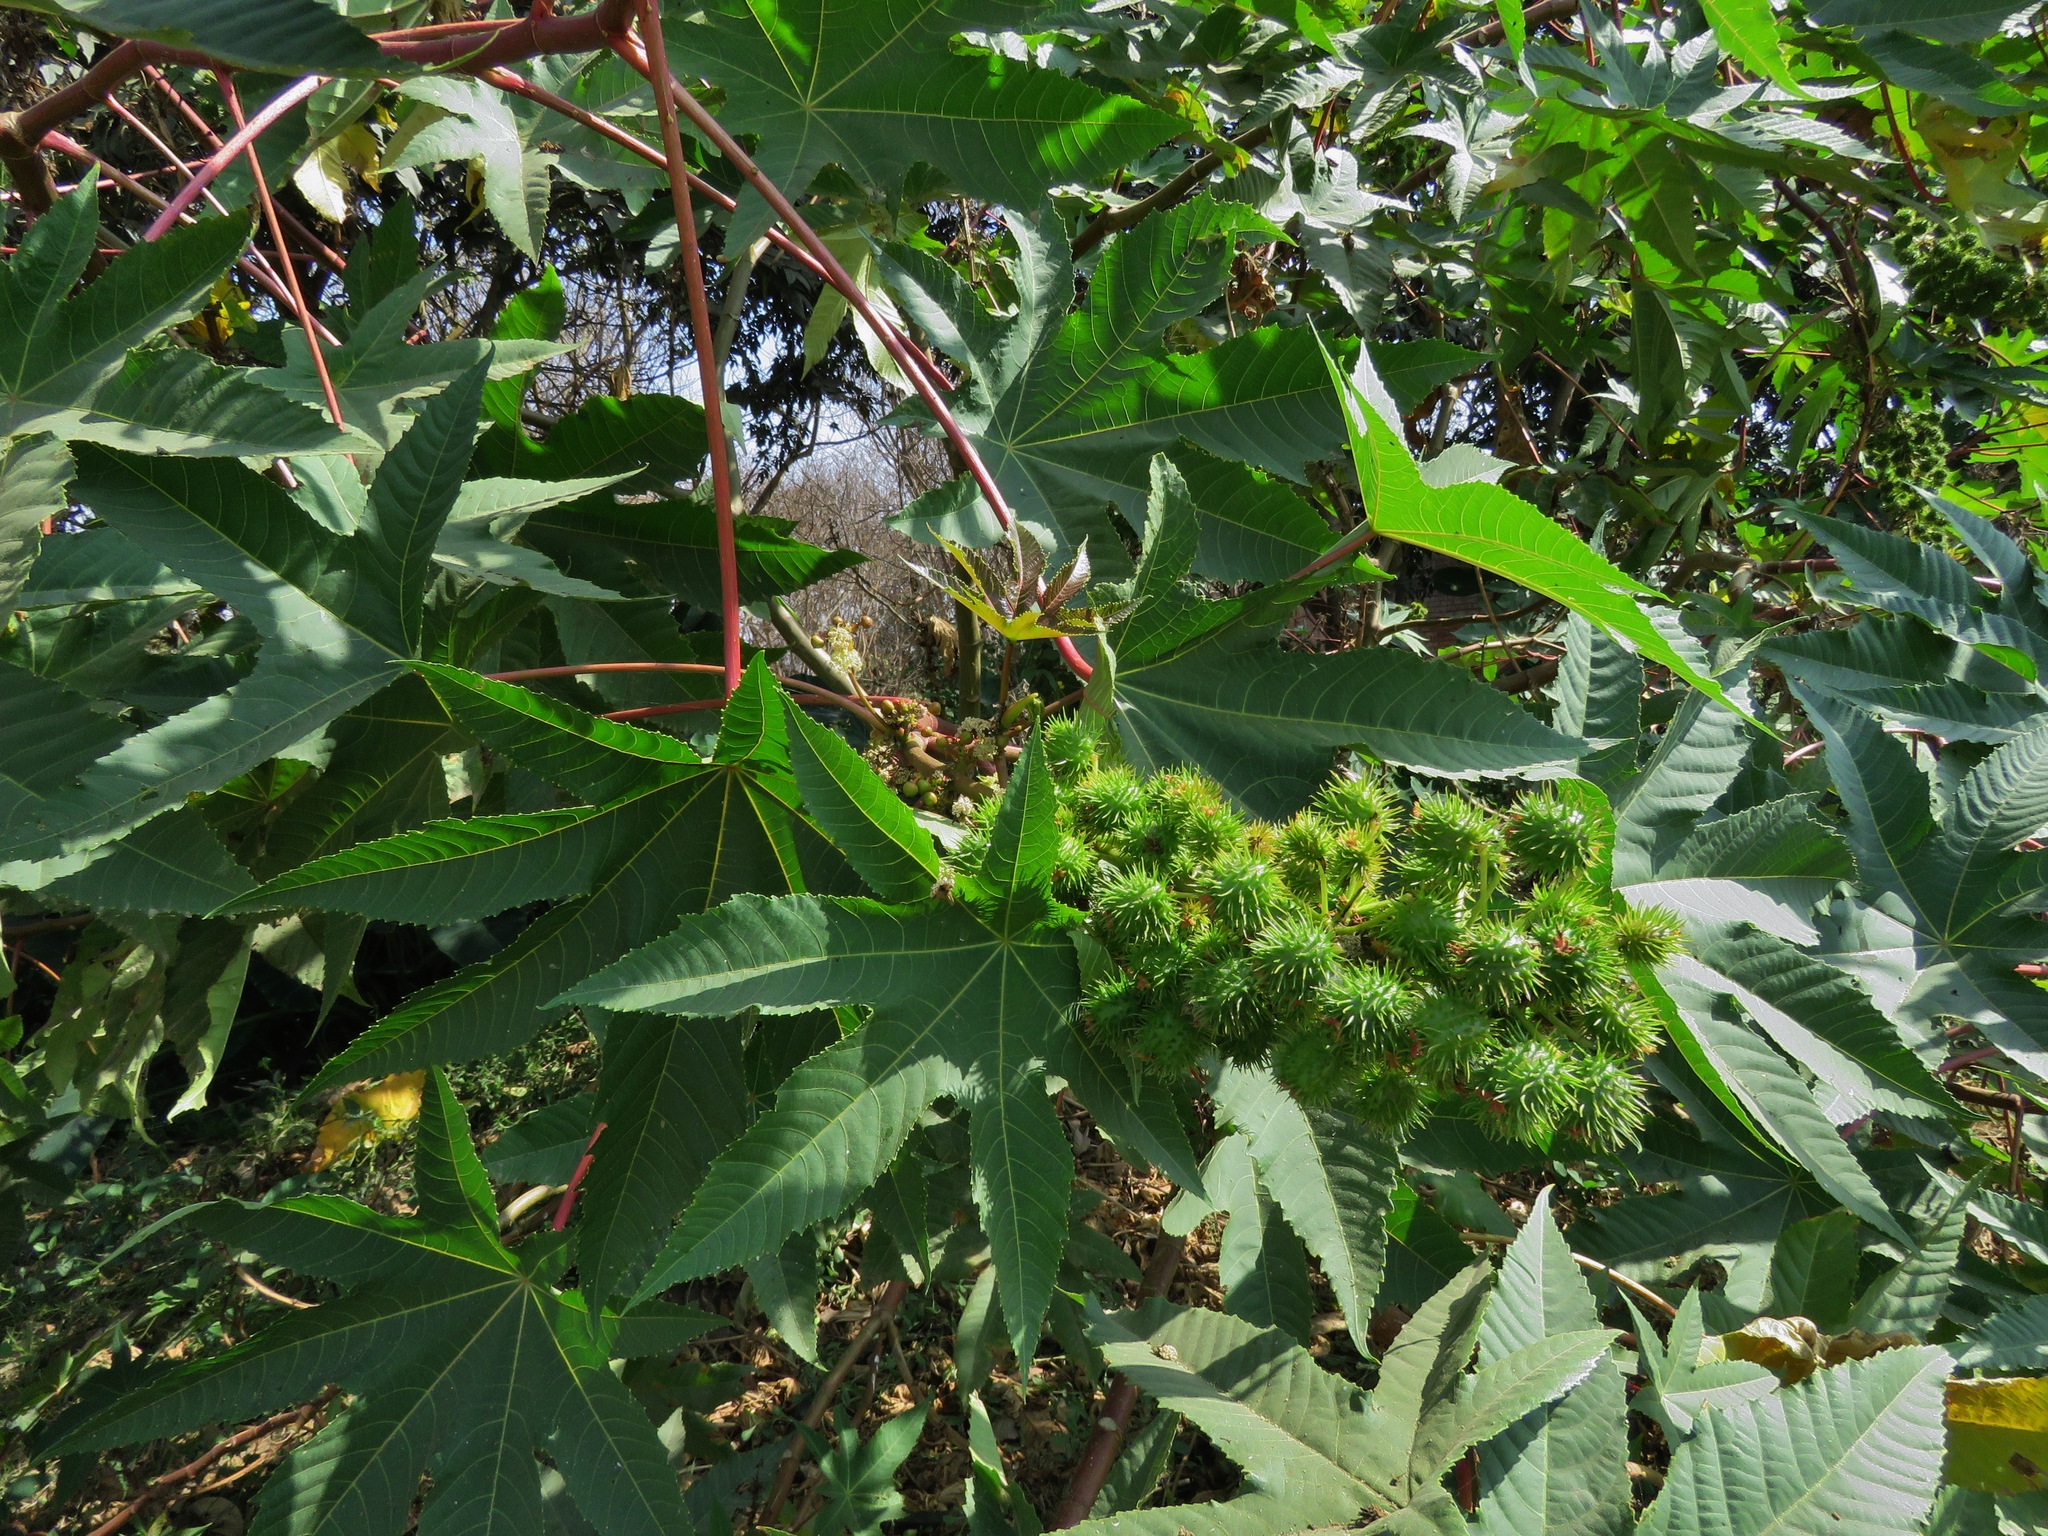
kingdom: Plantae
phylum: Tracheophyta
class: Magnoliopsida
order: Malpighiales
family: Euphorbiaceae
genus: Ricinus
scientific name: Ricinus communis
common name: Castor-oil-plant
